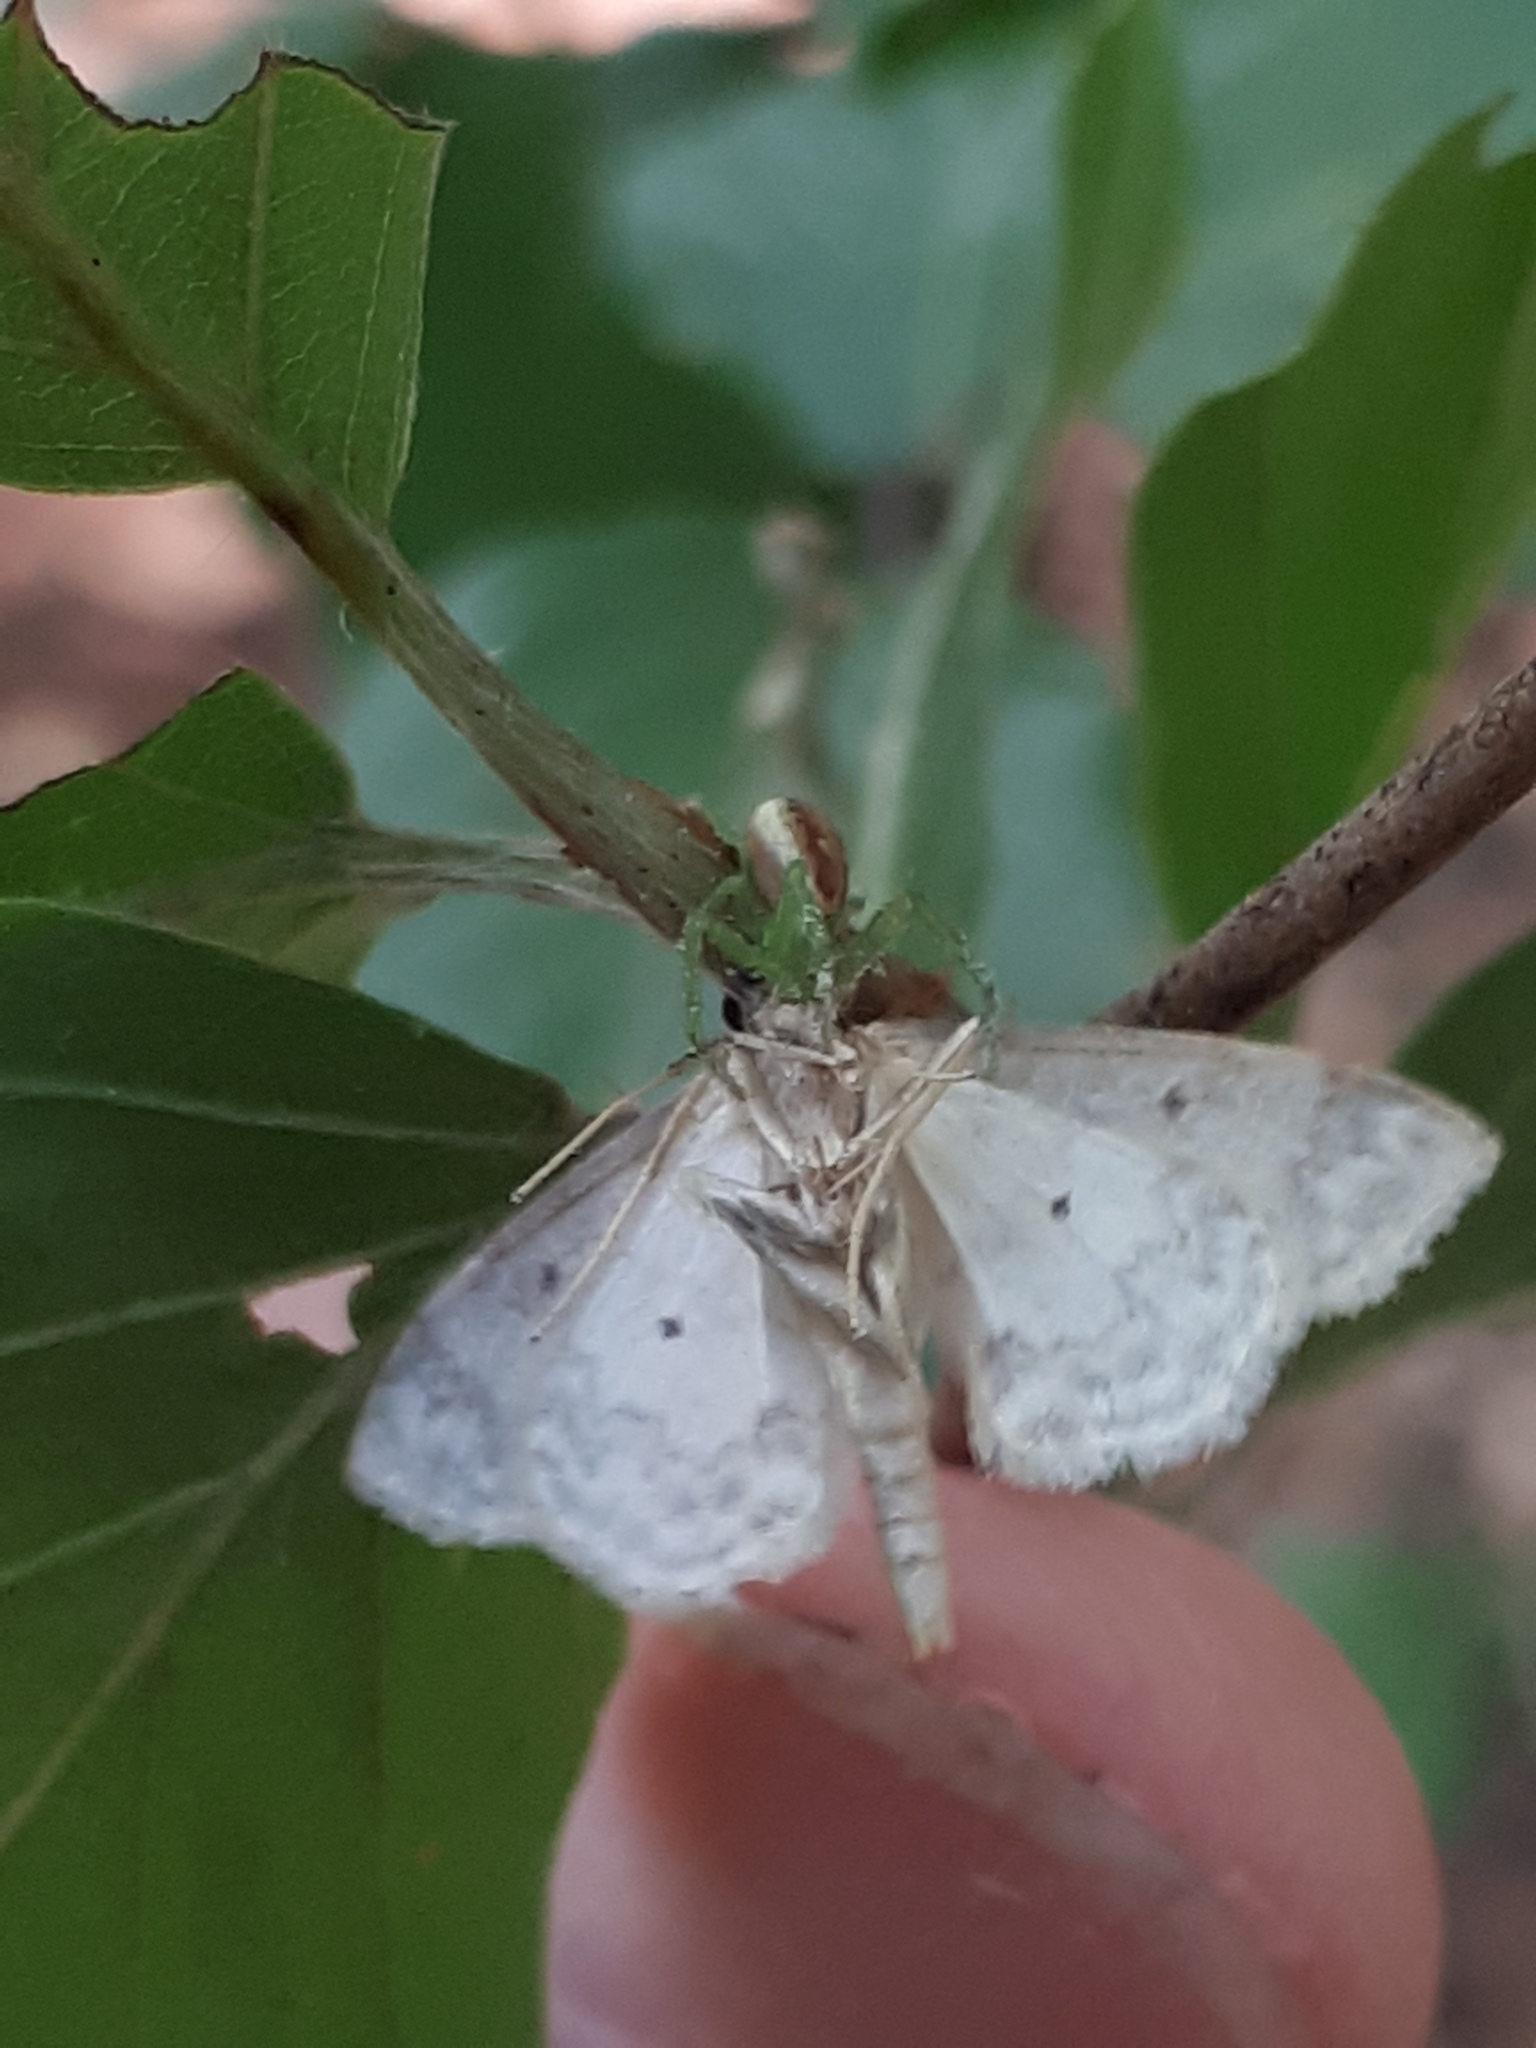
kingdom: Animalia
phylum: Arthropoda
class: Arachnida
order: Araneae
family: Thomisidae
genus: Diaea
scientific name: Diaea dorsata
